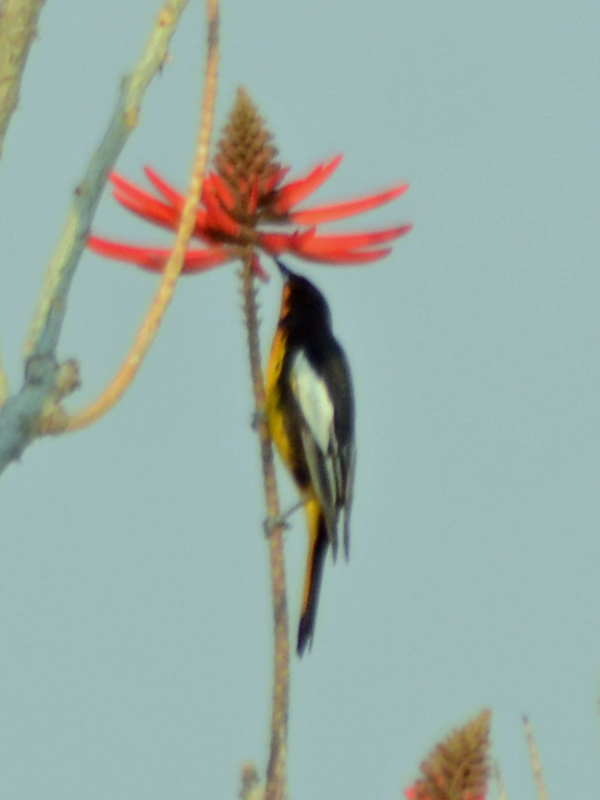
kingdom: Animalia
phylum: Chordata
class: Aves
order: Passeriformes
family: Icteridae
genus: Icterus
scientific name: Icterus abeillei
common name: Black-backed oriole
